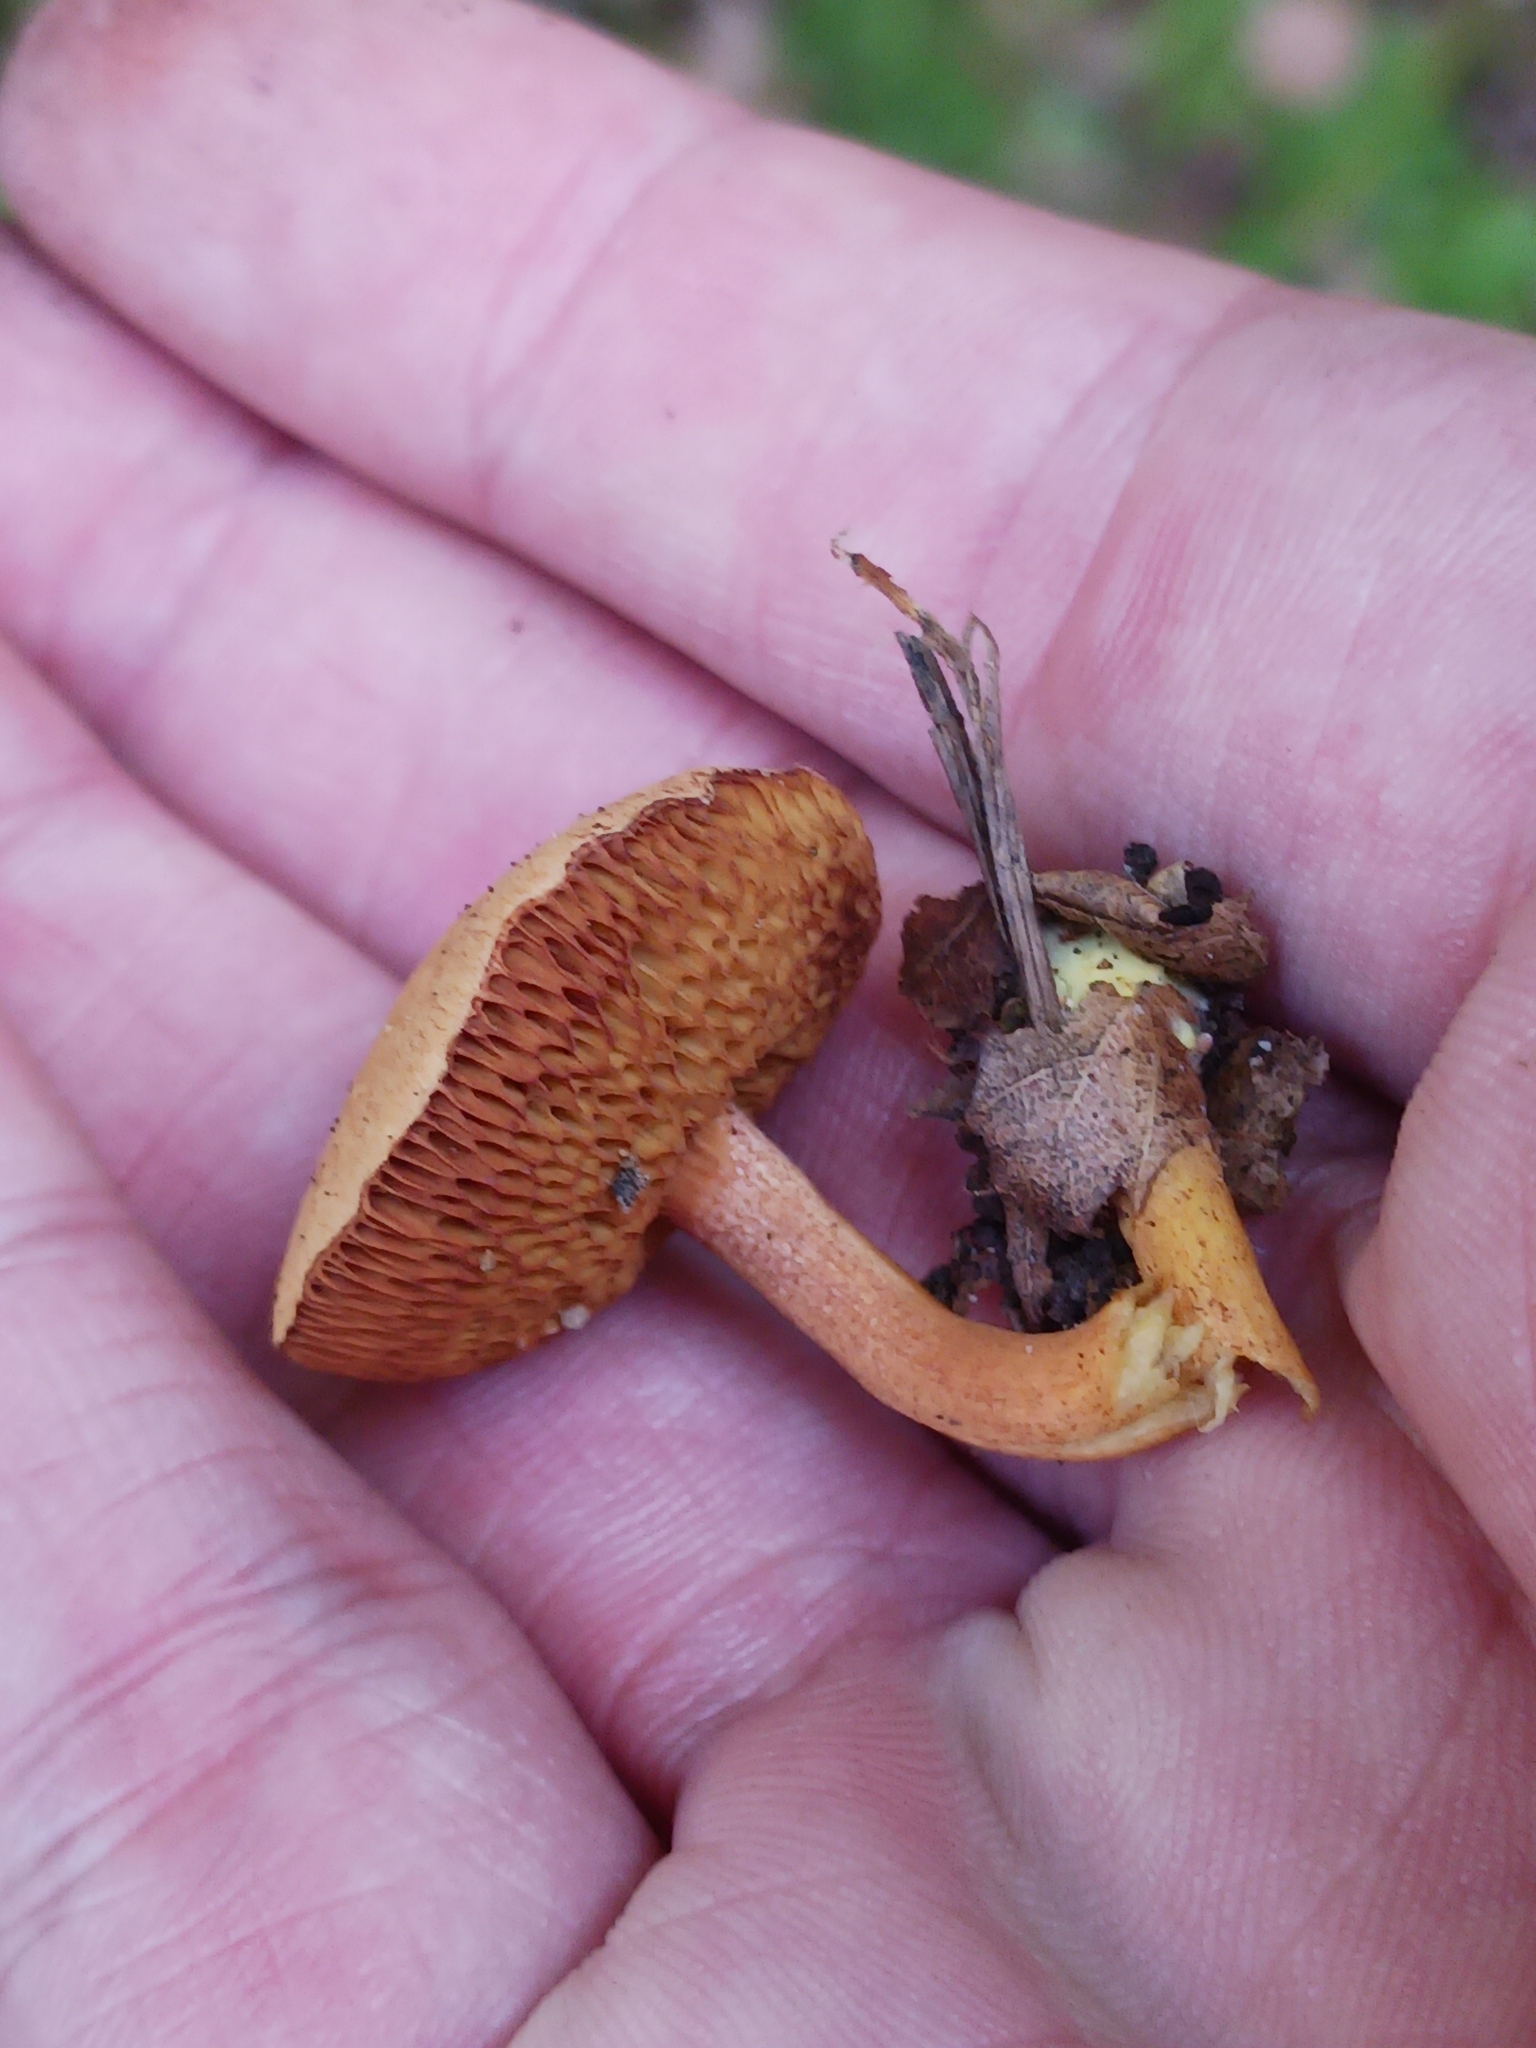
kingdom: Fungi
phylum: Basidiomycota
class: Agaricomycetes
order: Boletales
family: Boletaceae
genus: Chalciporus
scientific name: Chalciporus piperatus
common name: Peppery bolete
